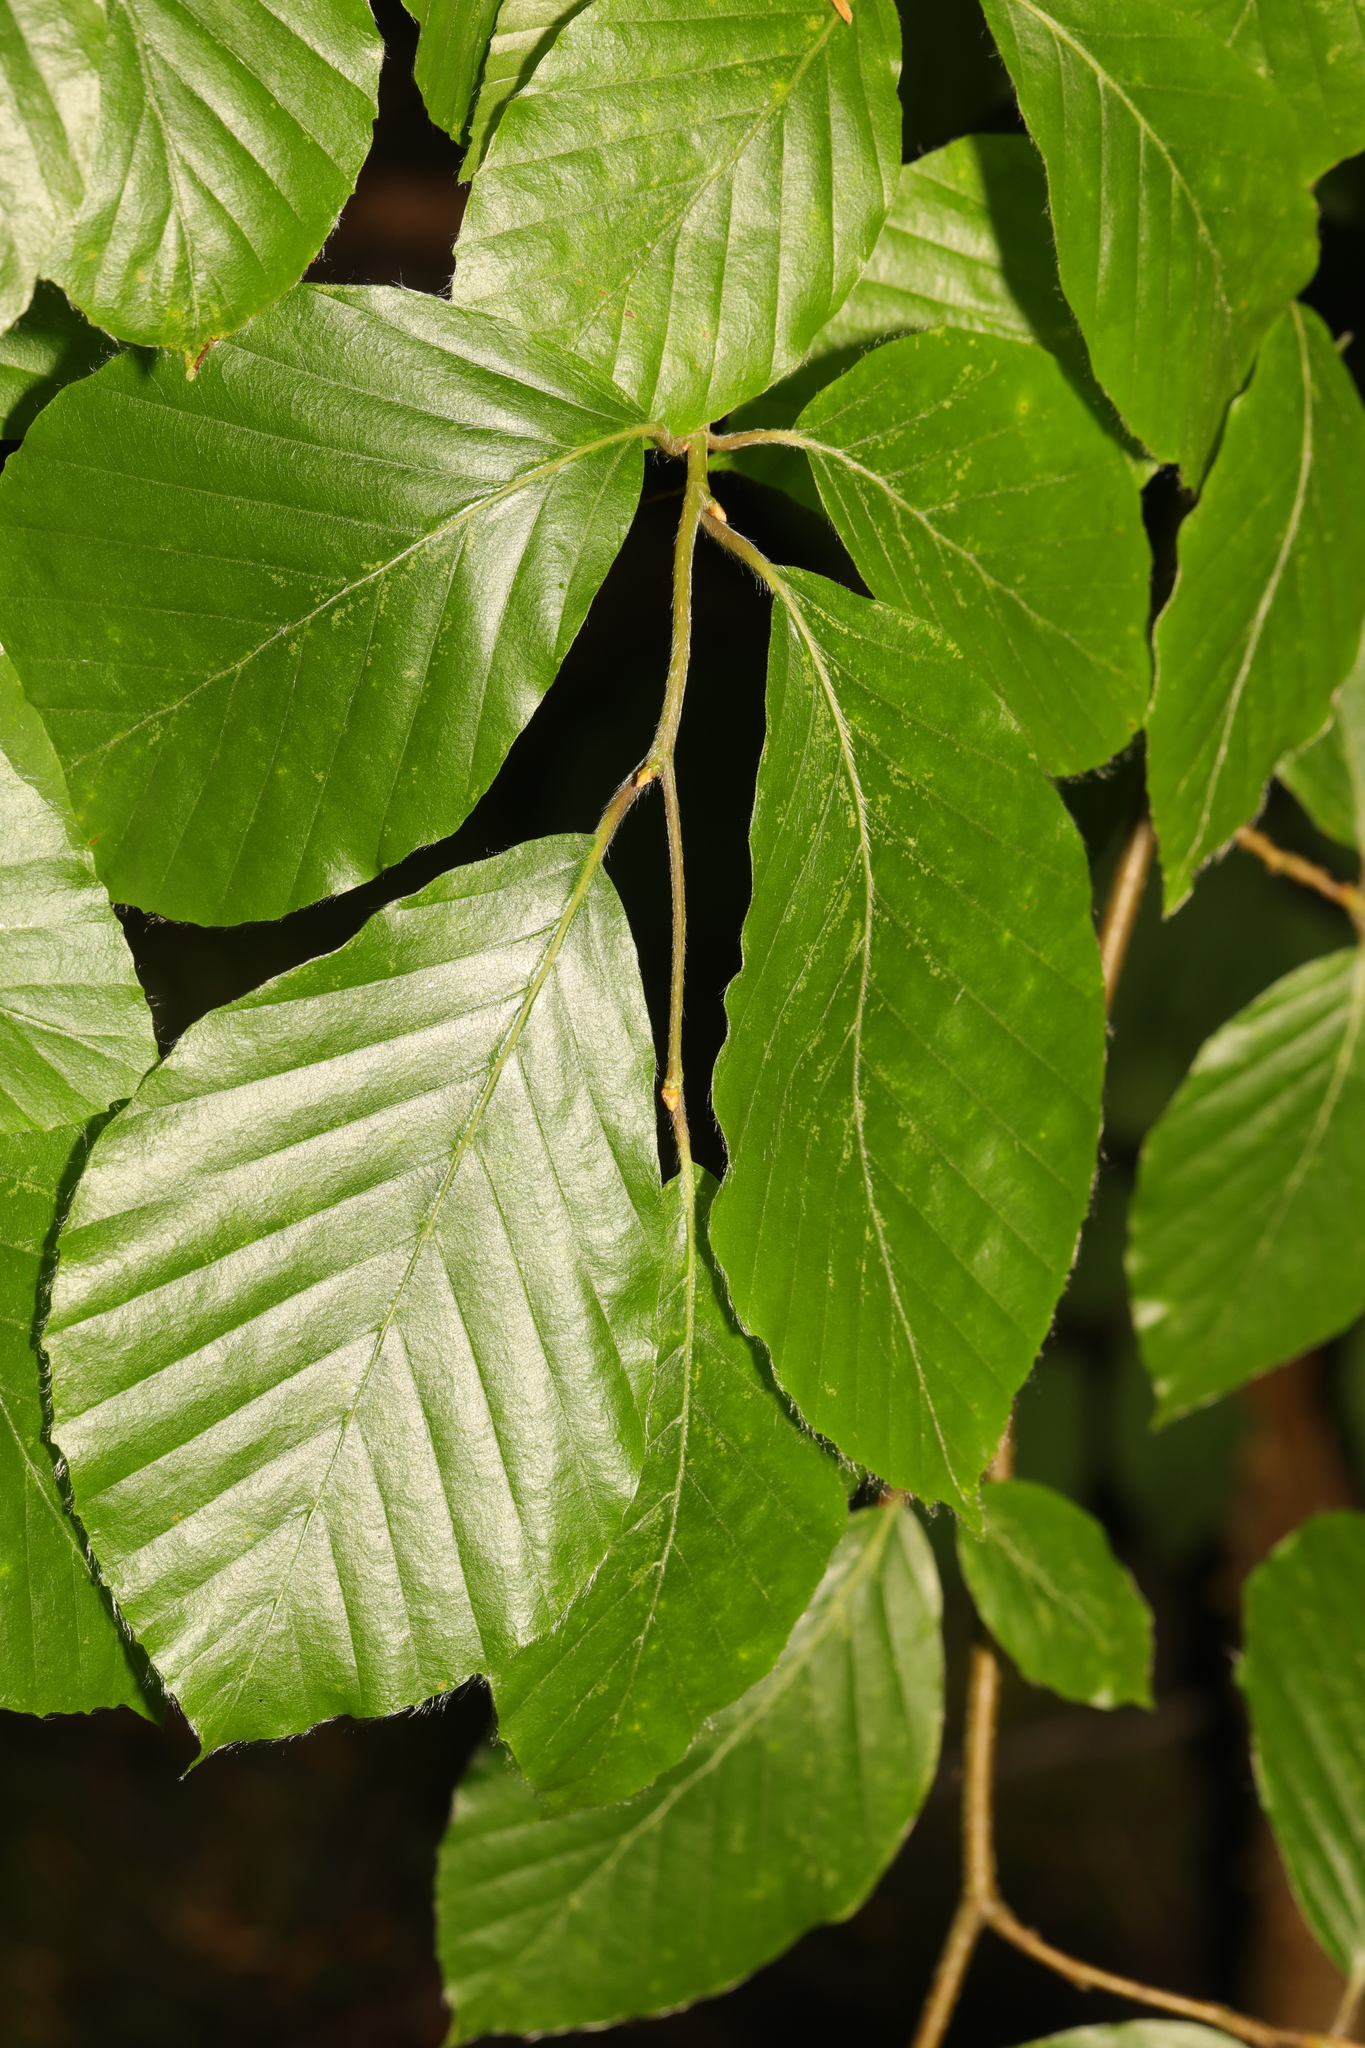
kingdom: Plantae
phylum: Tracheophyta
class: Magnoliopsida
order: Fagales
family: Fagaceae
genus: Fagus
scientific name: Fagus sylvatica
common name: Beech
